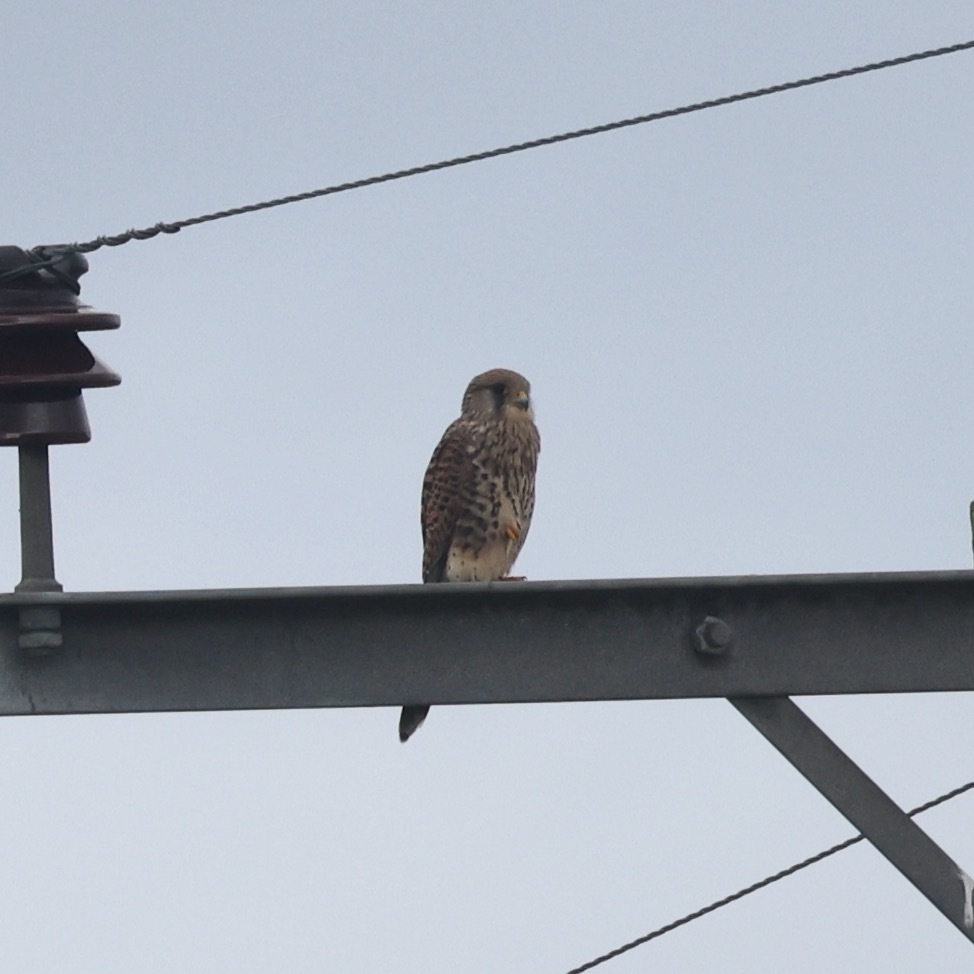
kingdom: Animalia
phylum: Chordata
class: Aves
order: Falconiformes
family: Falconidae
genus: Falco
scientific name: Falco tinnunculus
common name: Common kestrel
